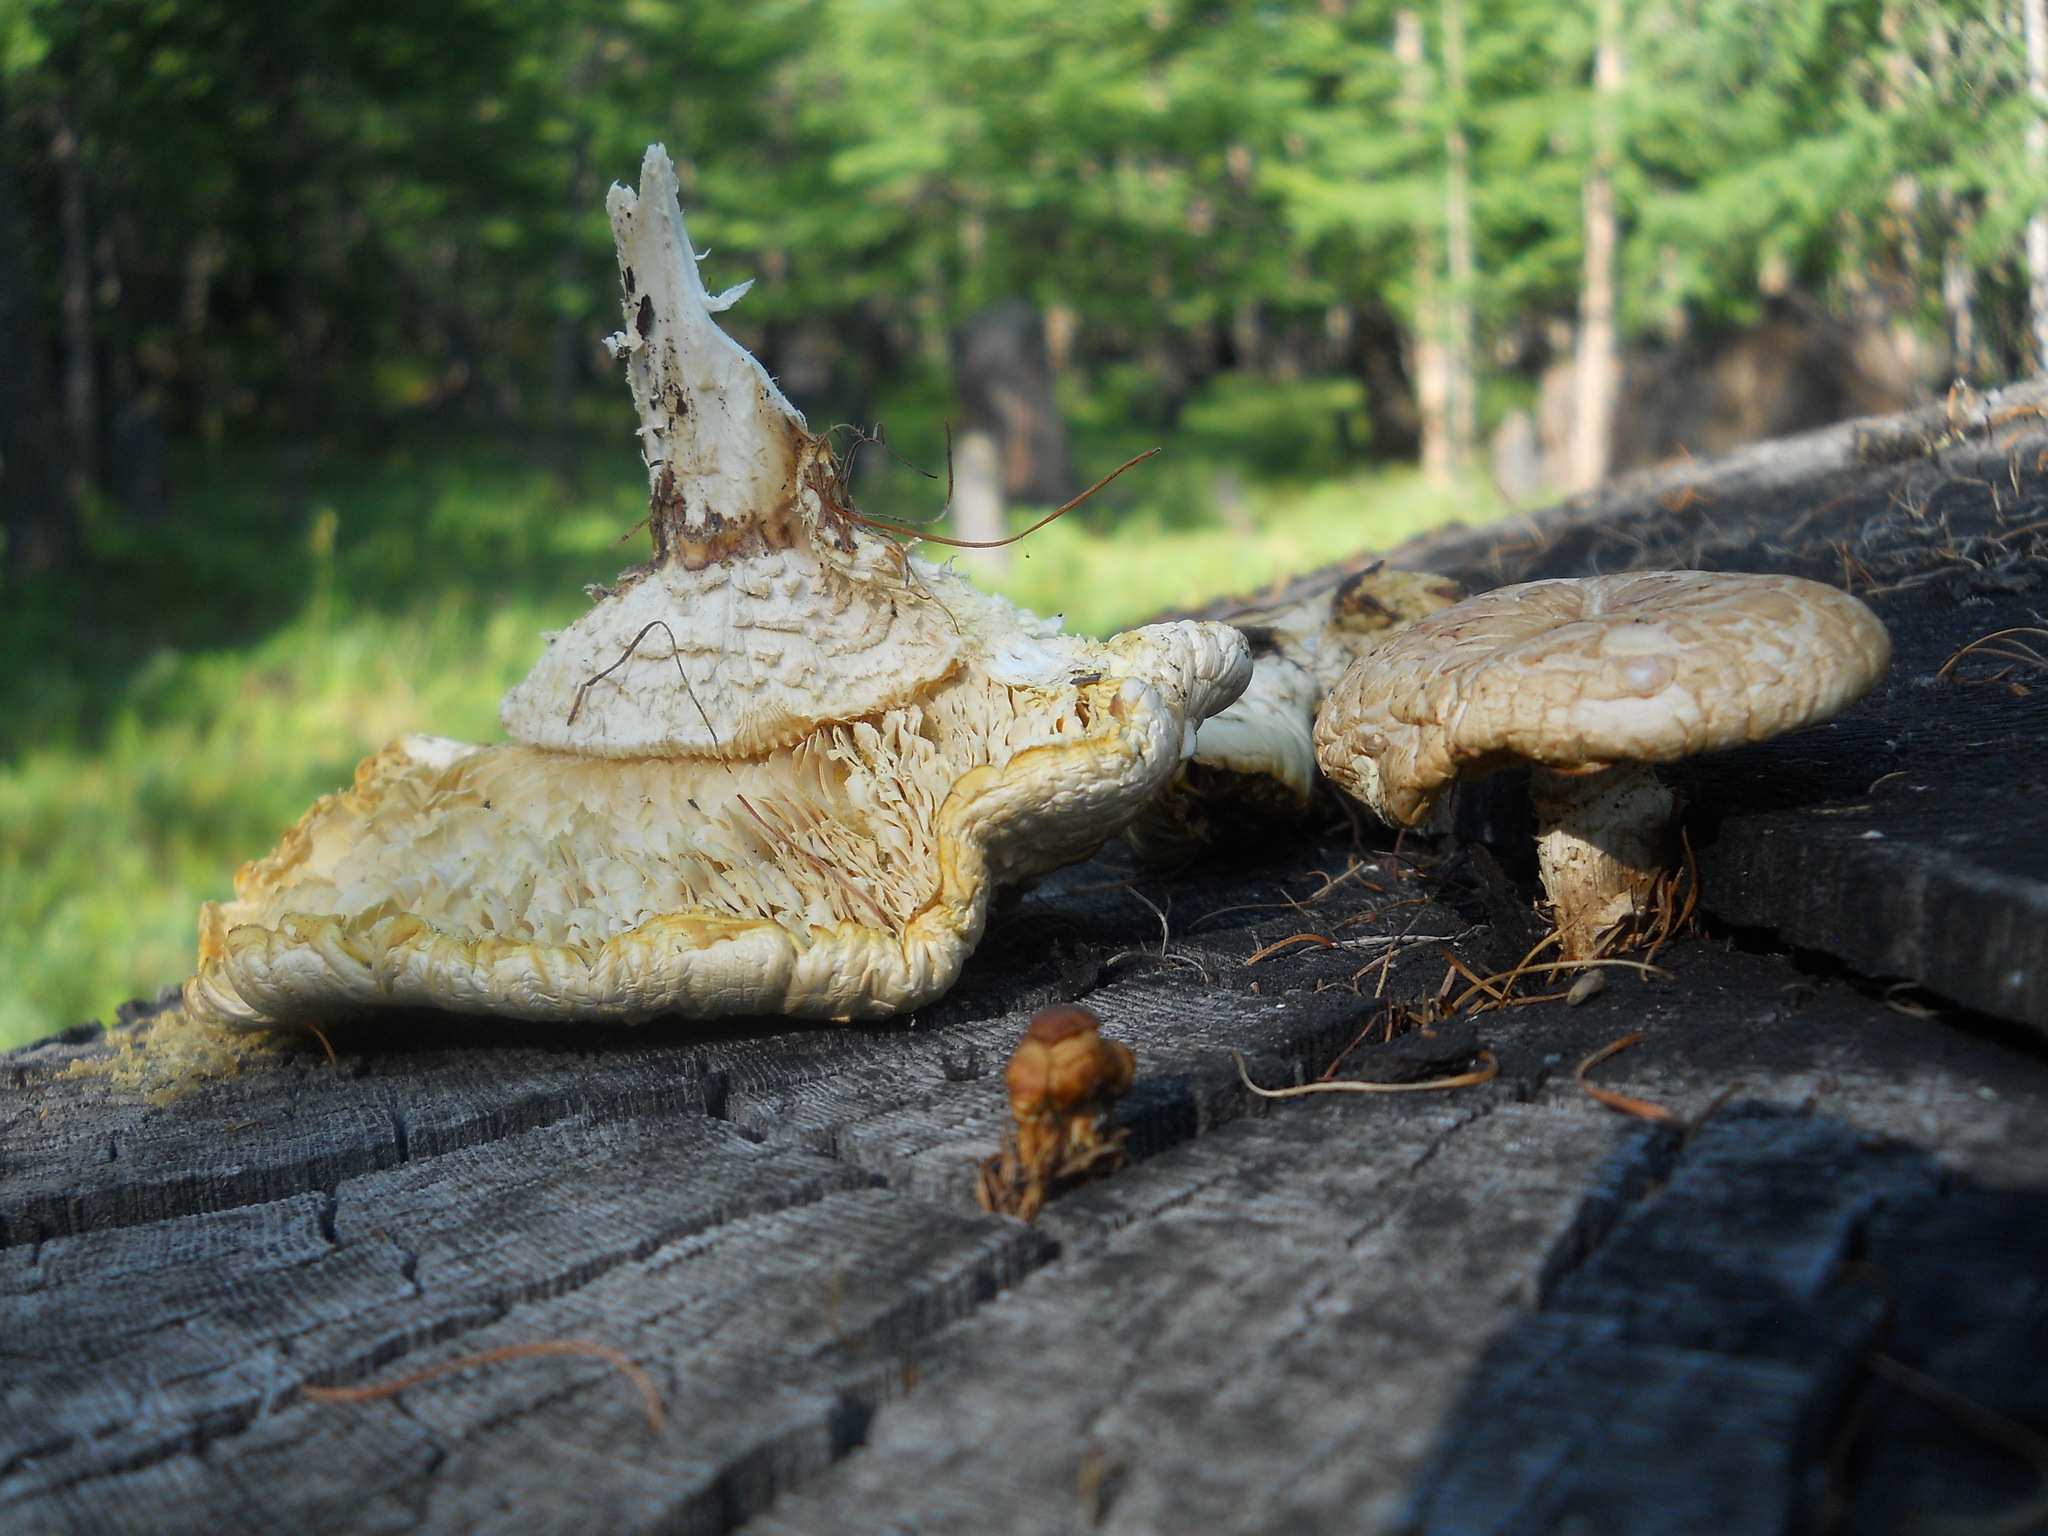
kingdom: Fungi
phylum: Basidiomycota
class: Agaricomycetes
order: Gloeophyllales
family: Gloeophyllaceae
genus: Neolentinus
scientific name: Neolentinus lepideus
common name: Scaly sawgill
